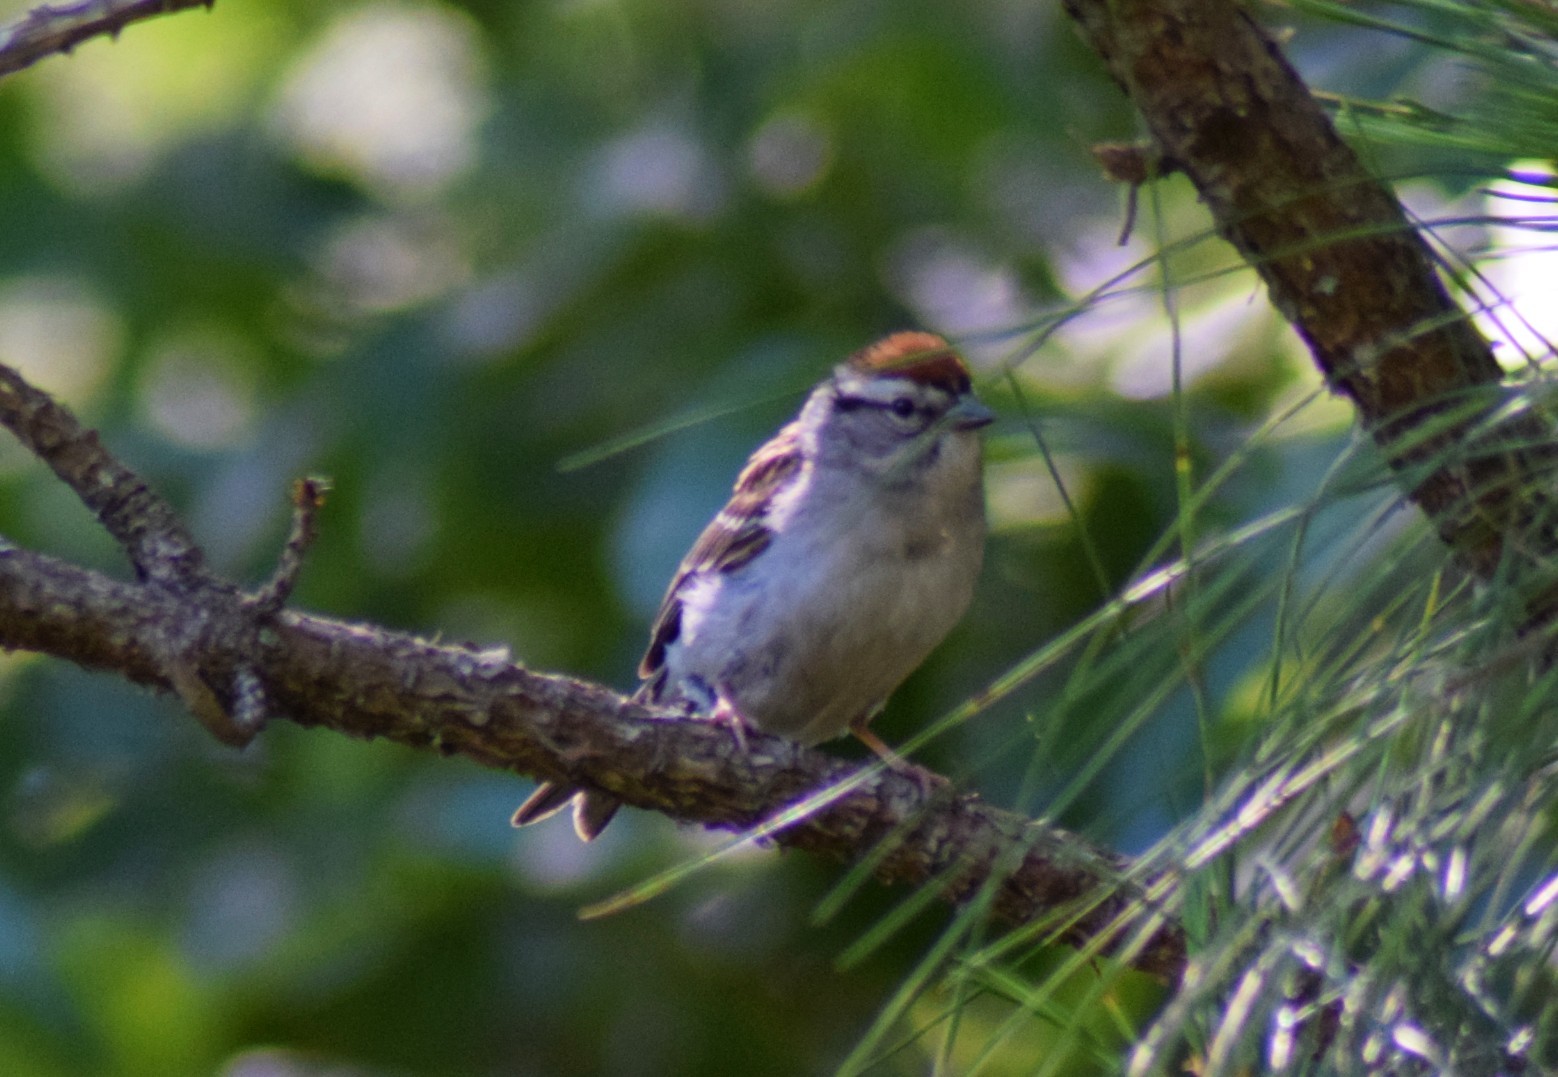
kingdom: Animalia
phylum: Chordata
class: Aves
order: Passeriformes
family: Passerellidae
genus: Spizella
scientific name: Spizella passerina
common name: Chipping sparrow
